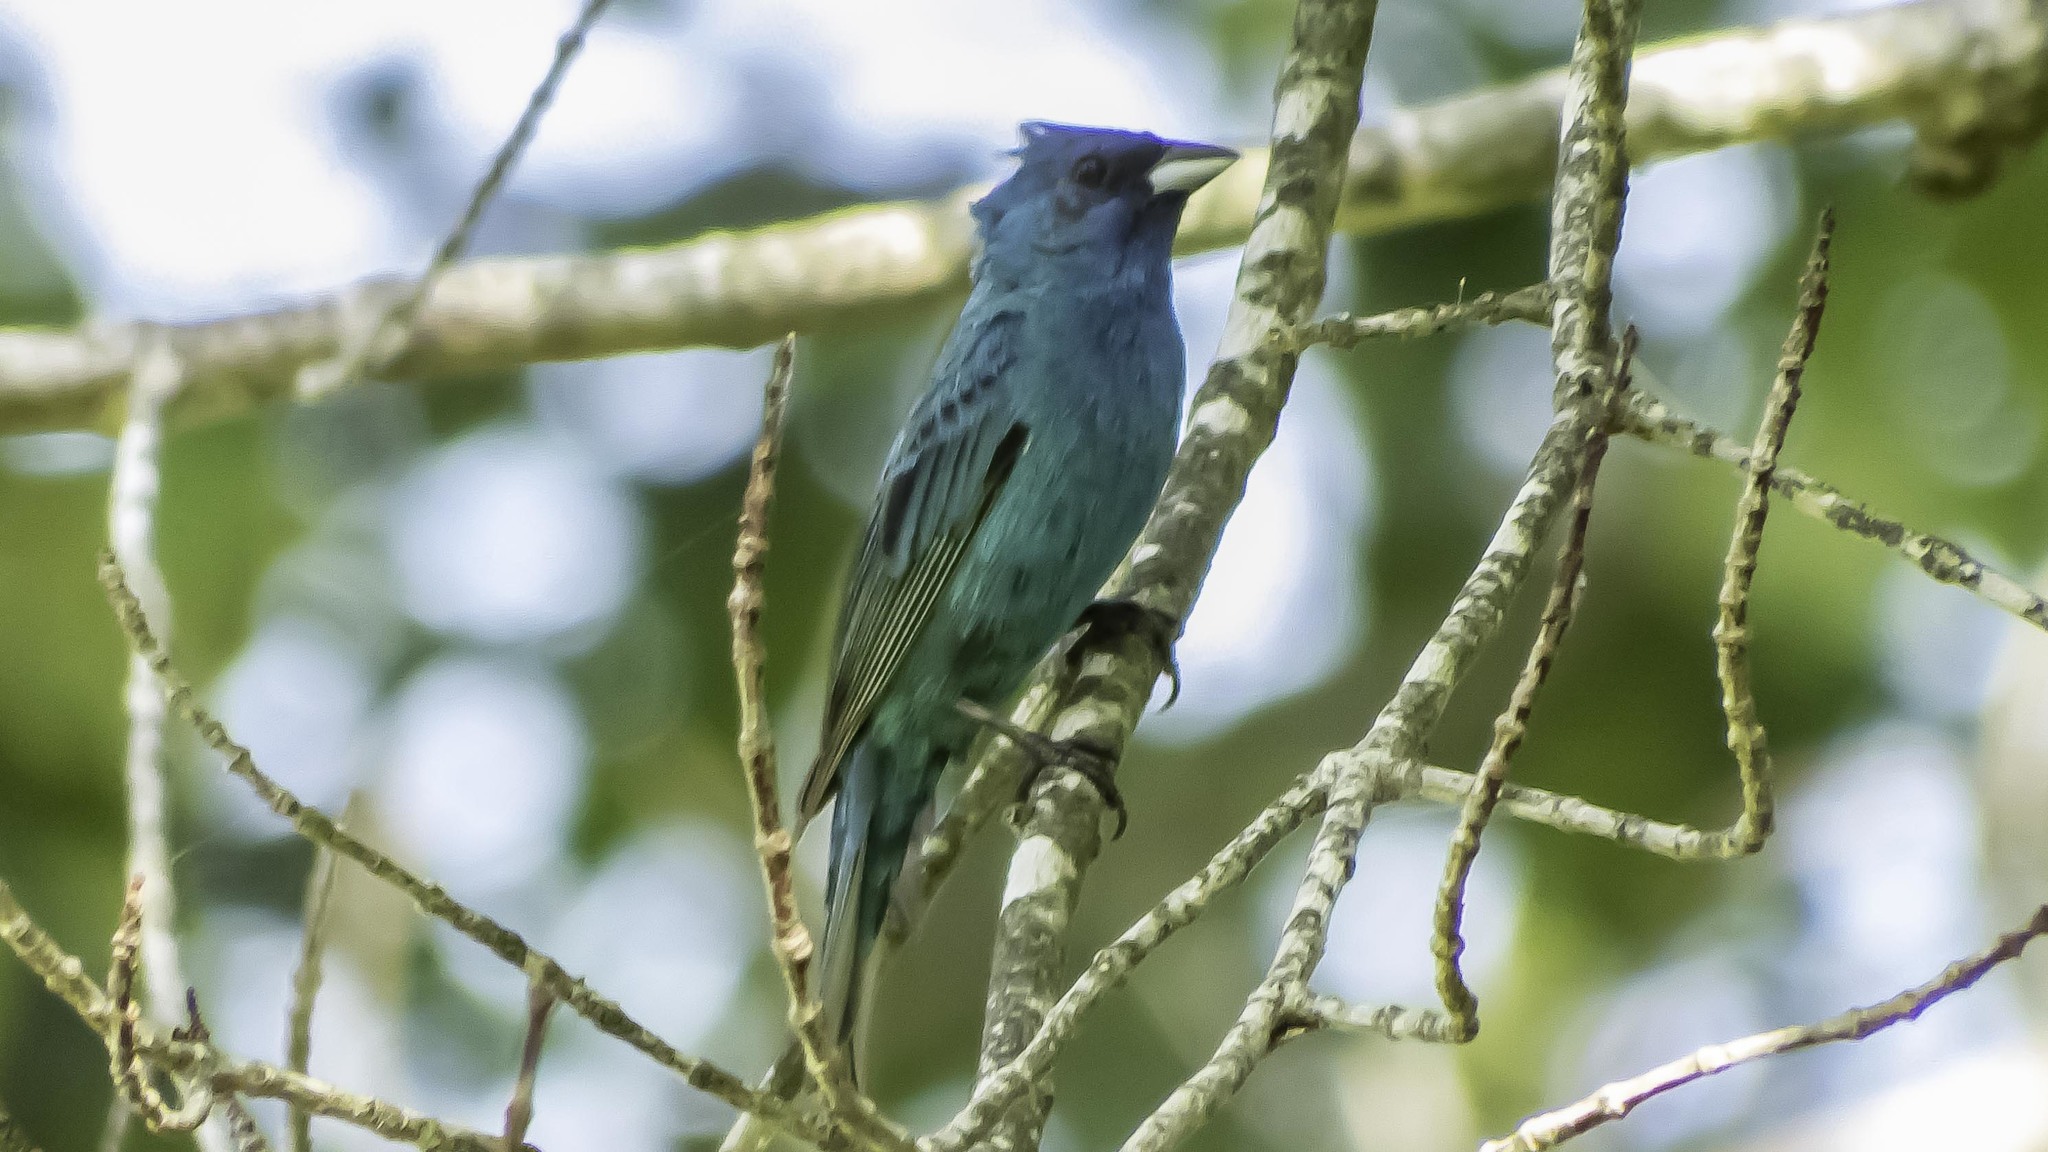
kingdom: Animalia
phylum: Chordata
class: Aves
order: Passeriformes
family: Cardinalidae
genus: Passerina
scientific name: Passerina cyanea
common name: Indigo bunting
